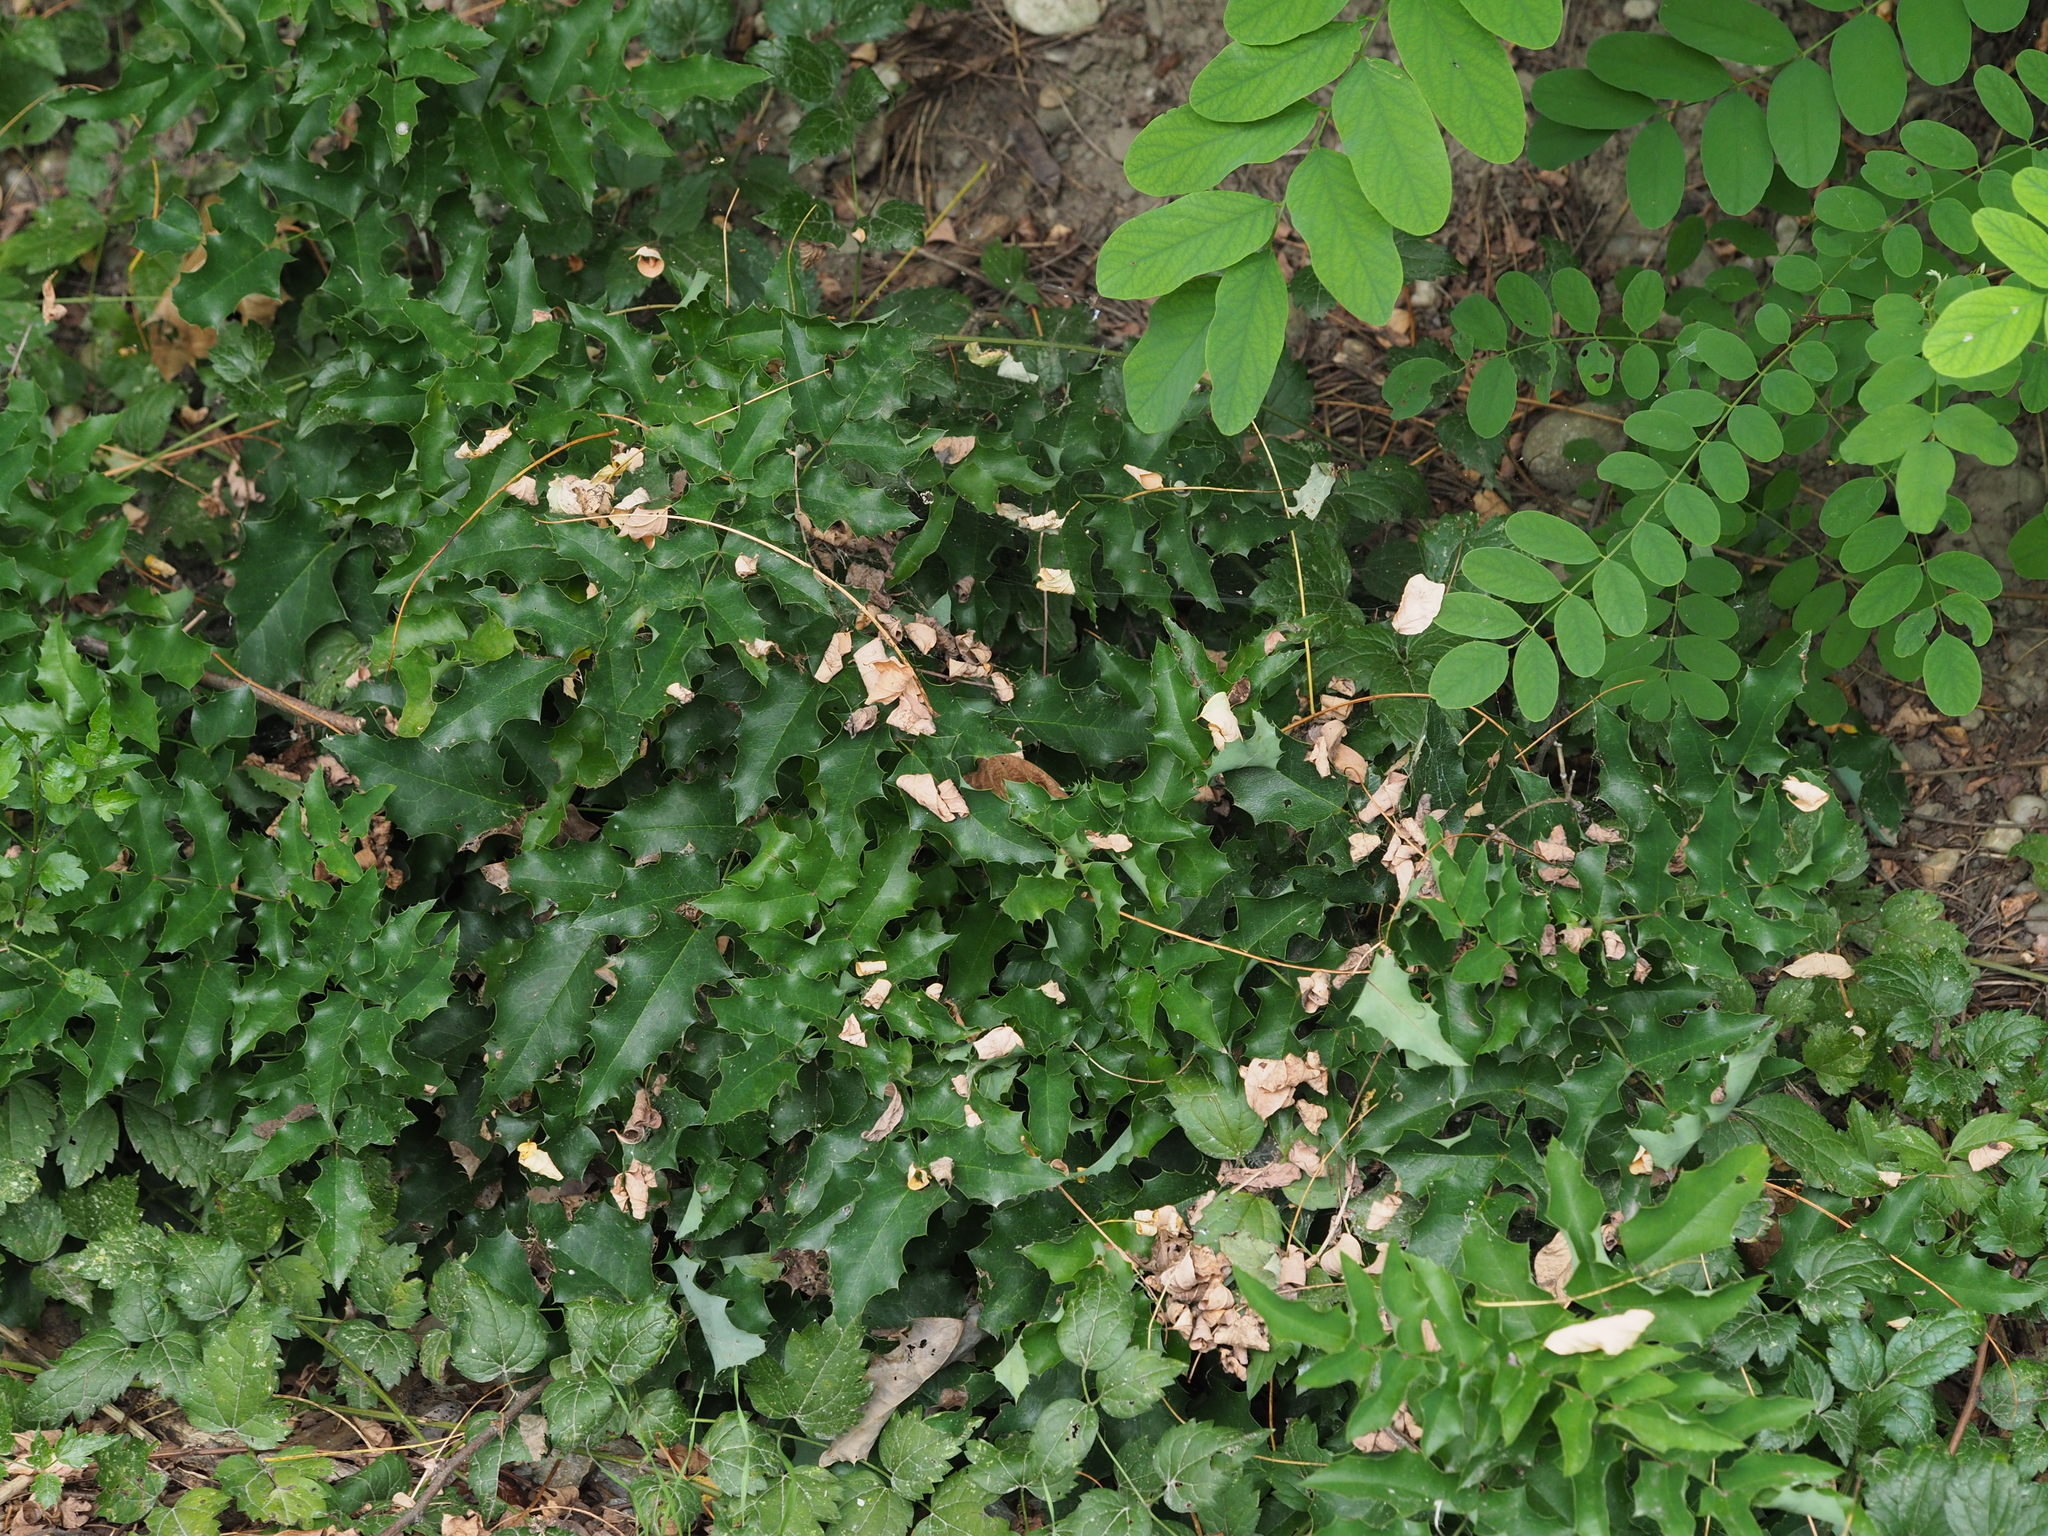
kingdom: Plantae
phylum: Tracheophyta
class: Magnoliopsida
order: Ranunculales
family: Berberidaceae
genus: Mahonia
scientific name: Mahonia aquifolium
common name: Oregon-grape
